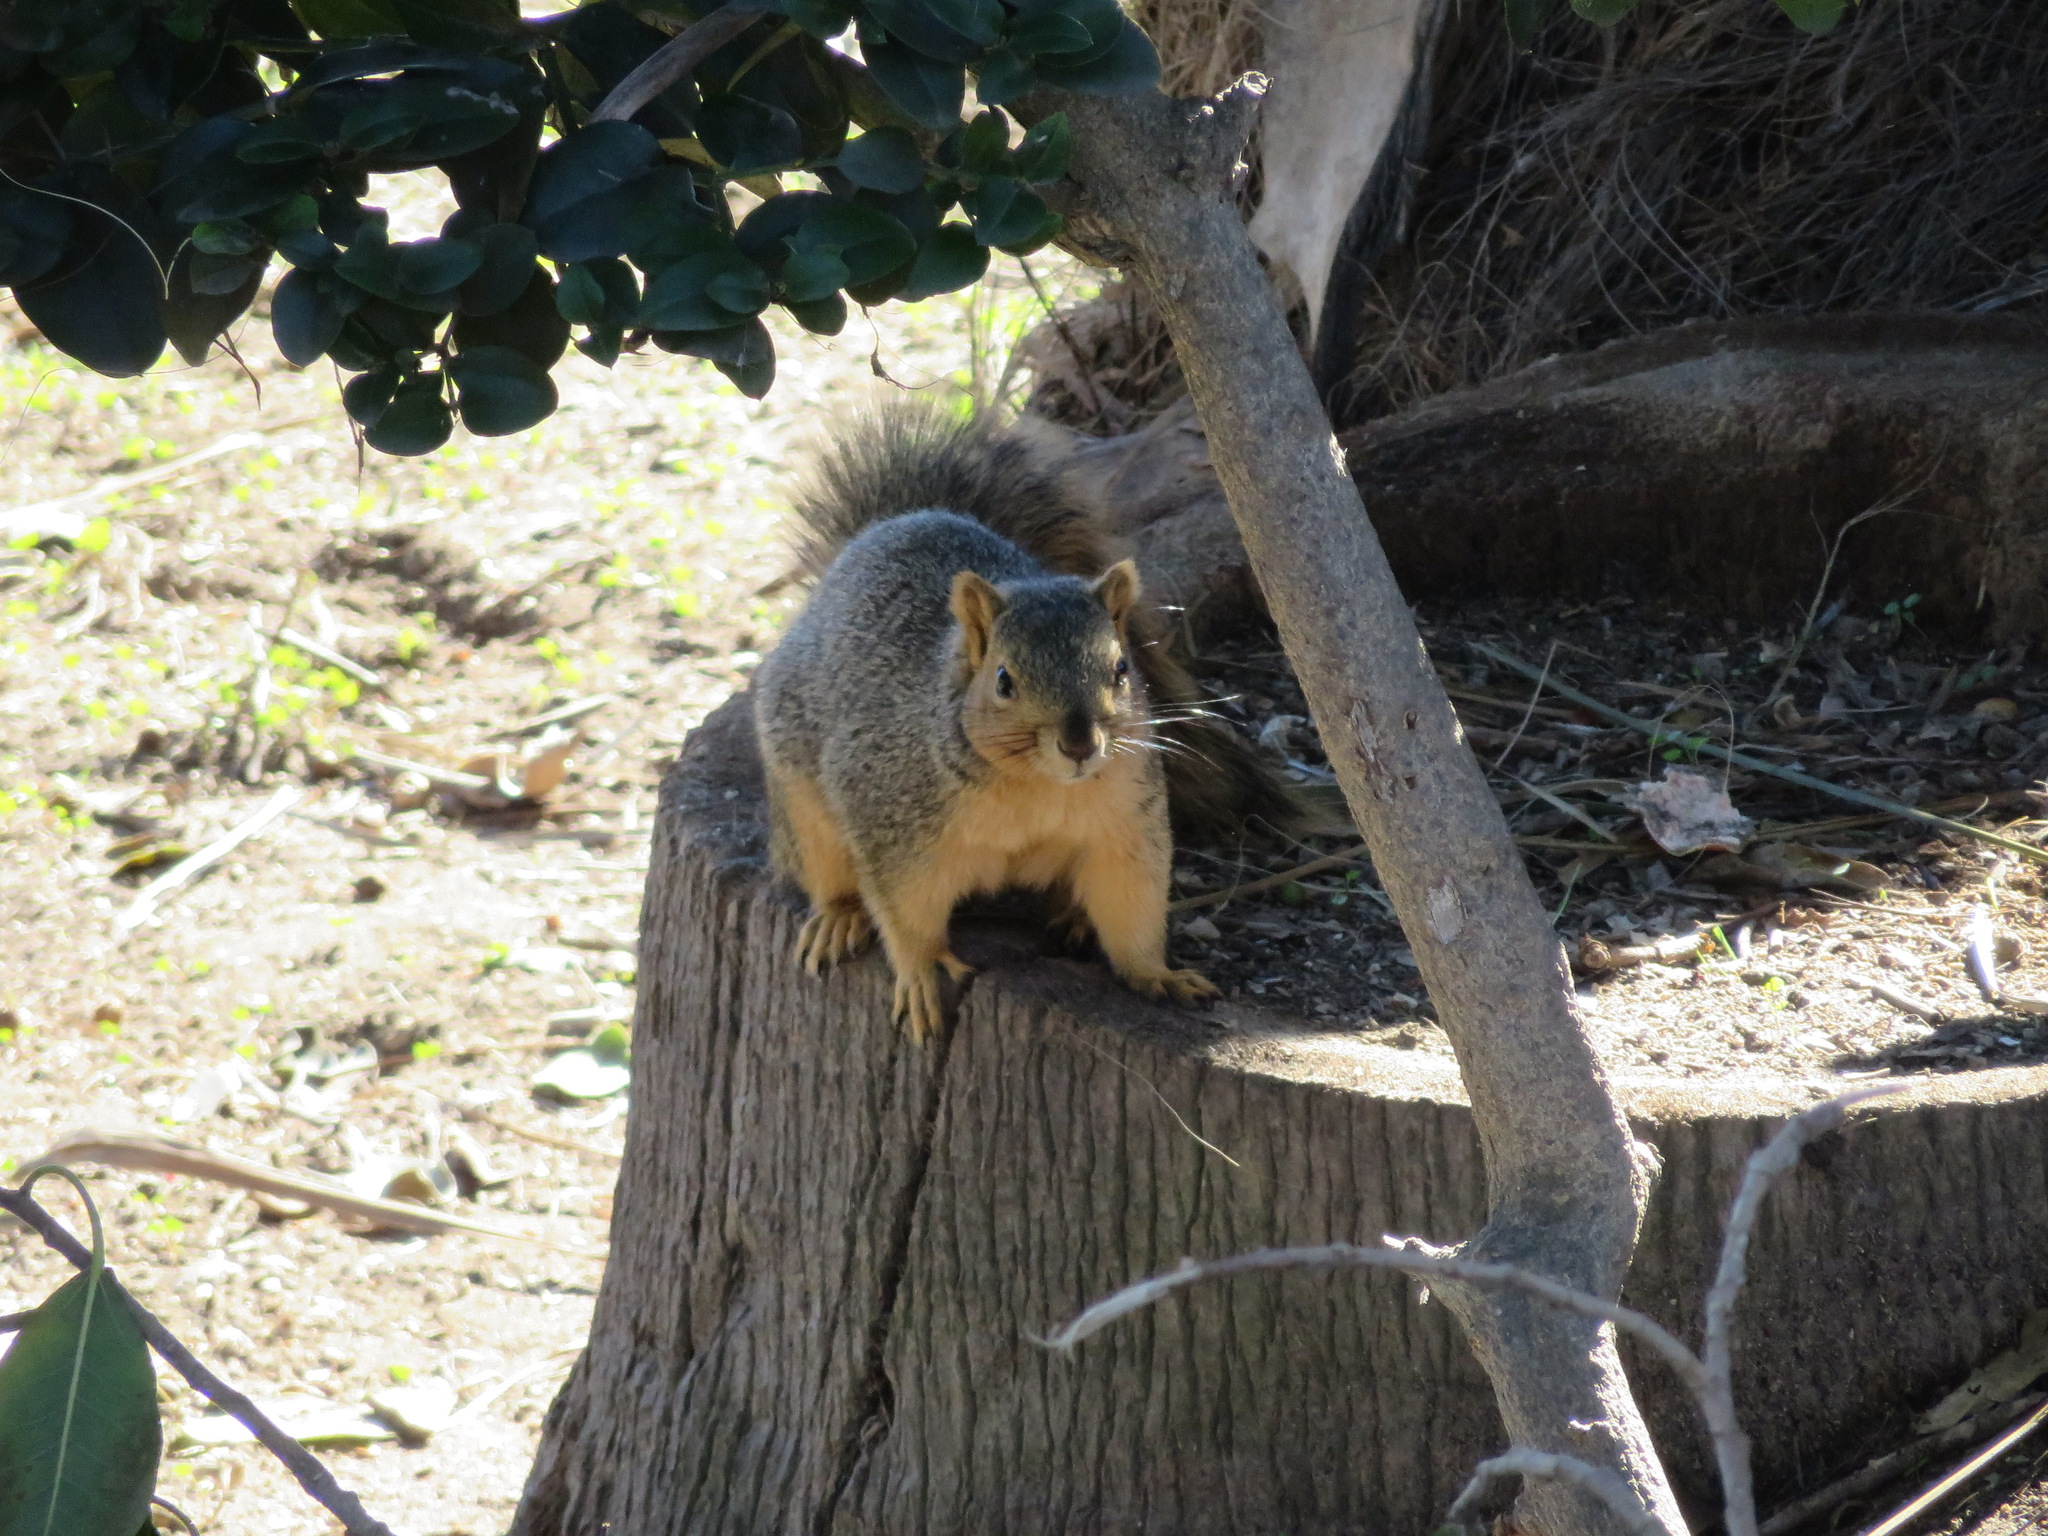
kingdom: Animalia
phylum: Chordata
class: Mammalia
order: Rodentia
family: Sciuridae
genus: Sciurus
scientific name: Sciurus niger
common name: Fox squirrel
